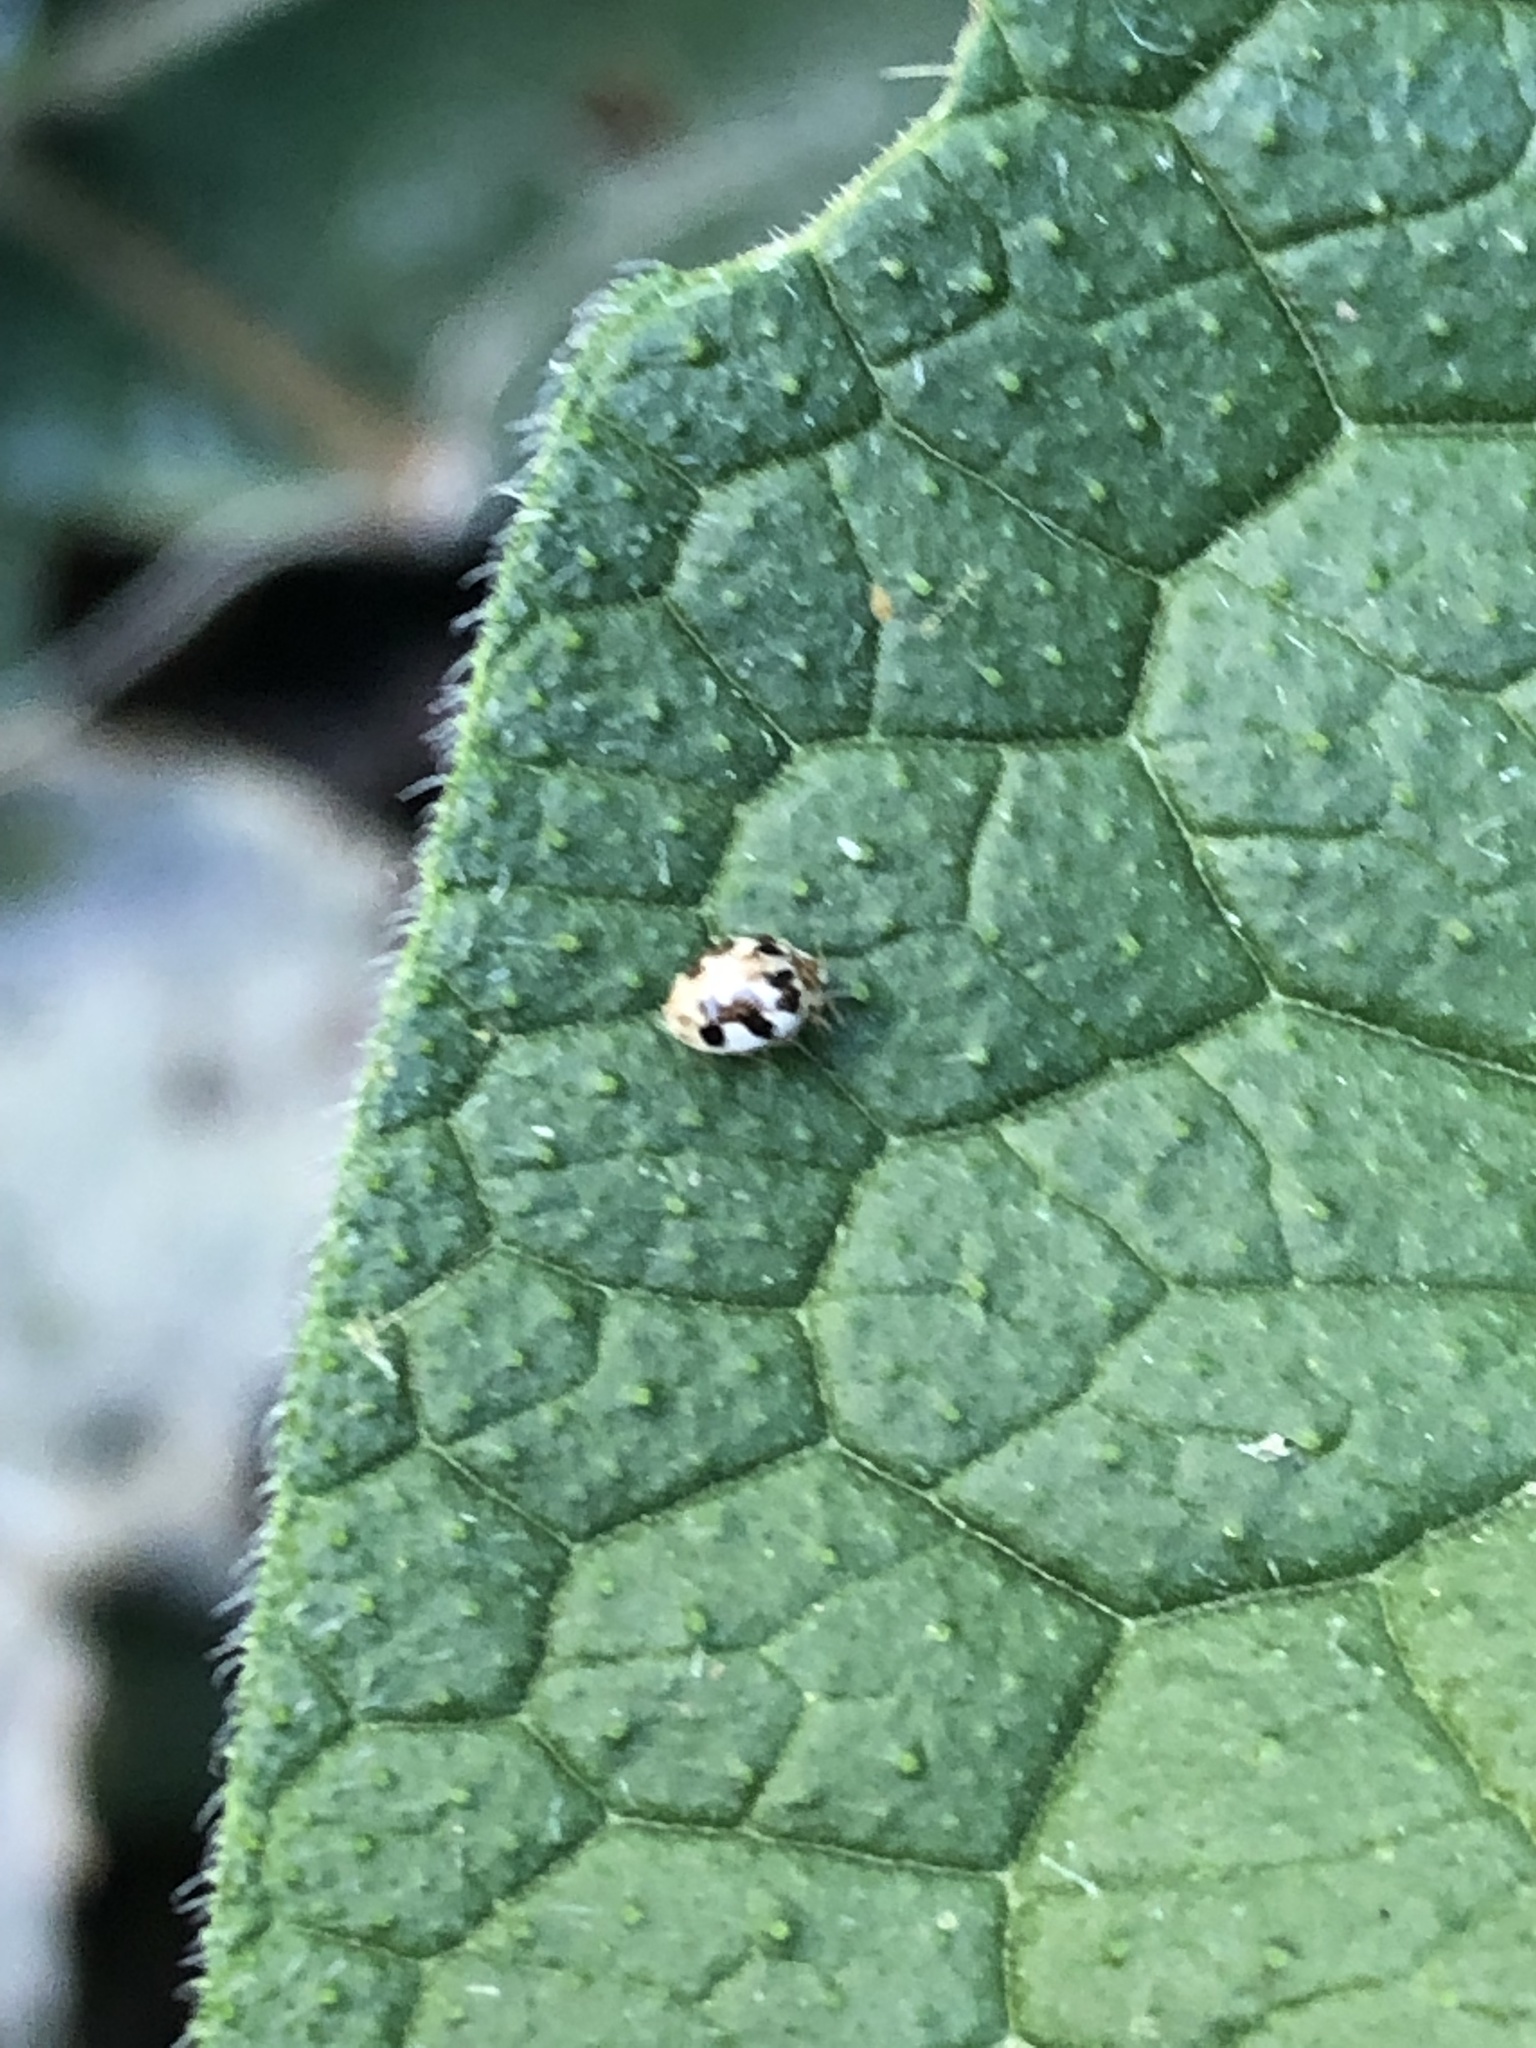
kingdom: Animalia
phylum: Arthropoda
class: Insecta
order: Coleoptera
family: Coccinellidae
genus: Psyllobora
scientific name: Psyllobora vigintimaculata
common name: Ladybird beetle
